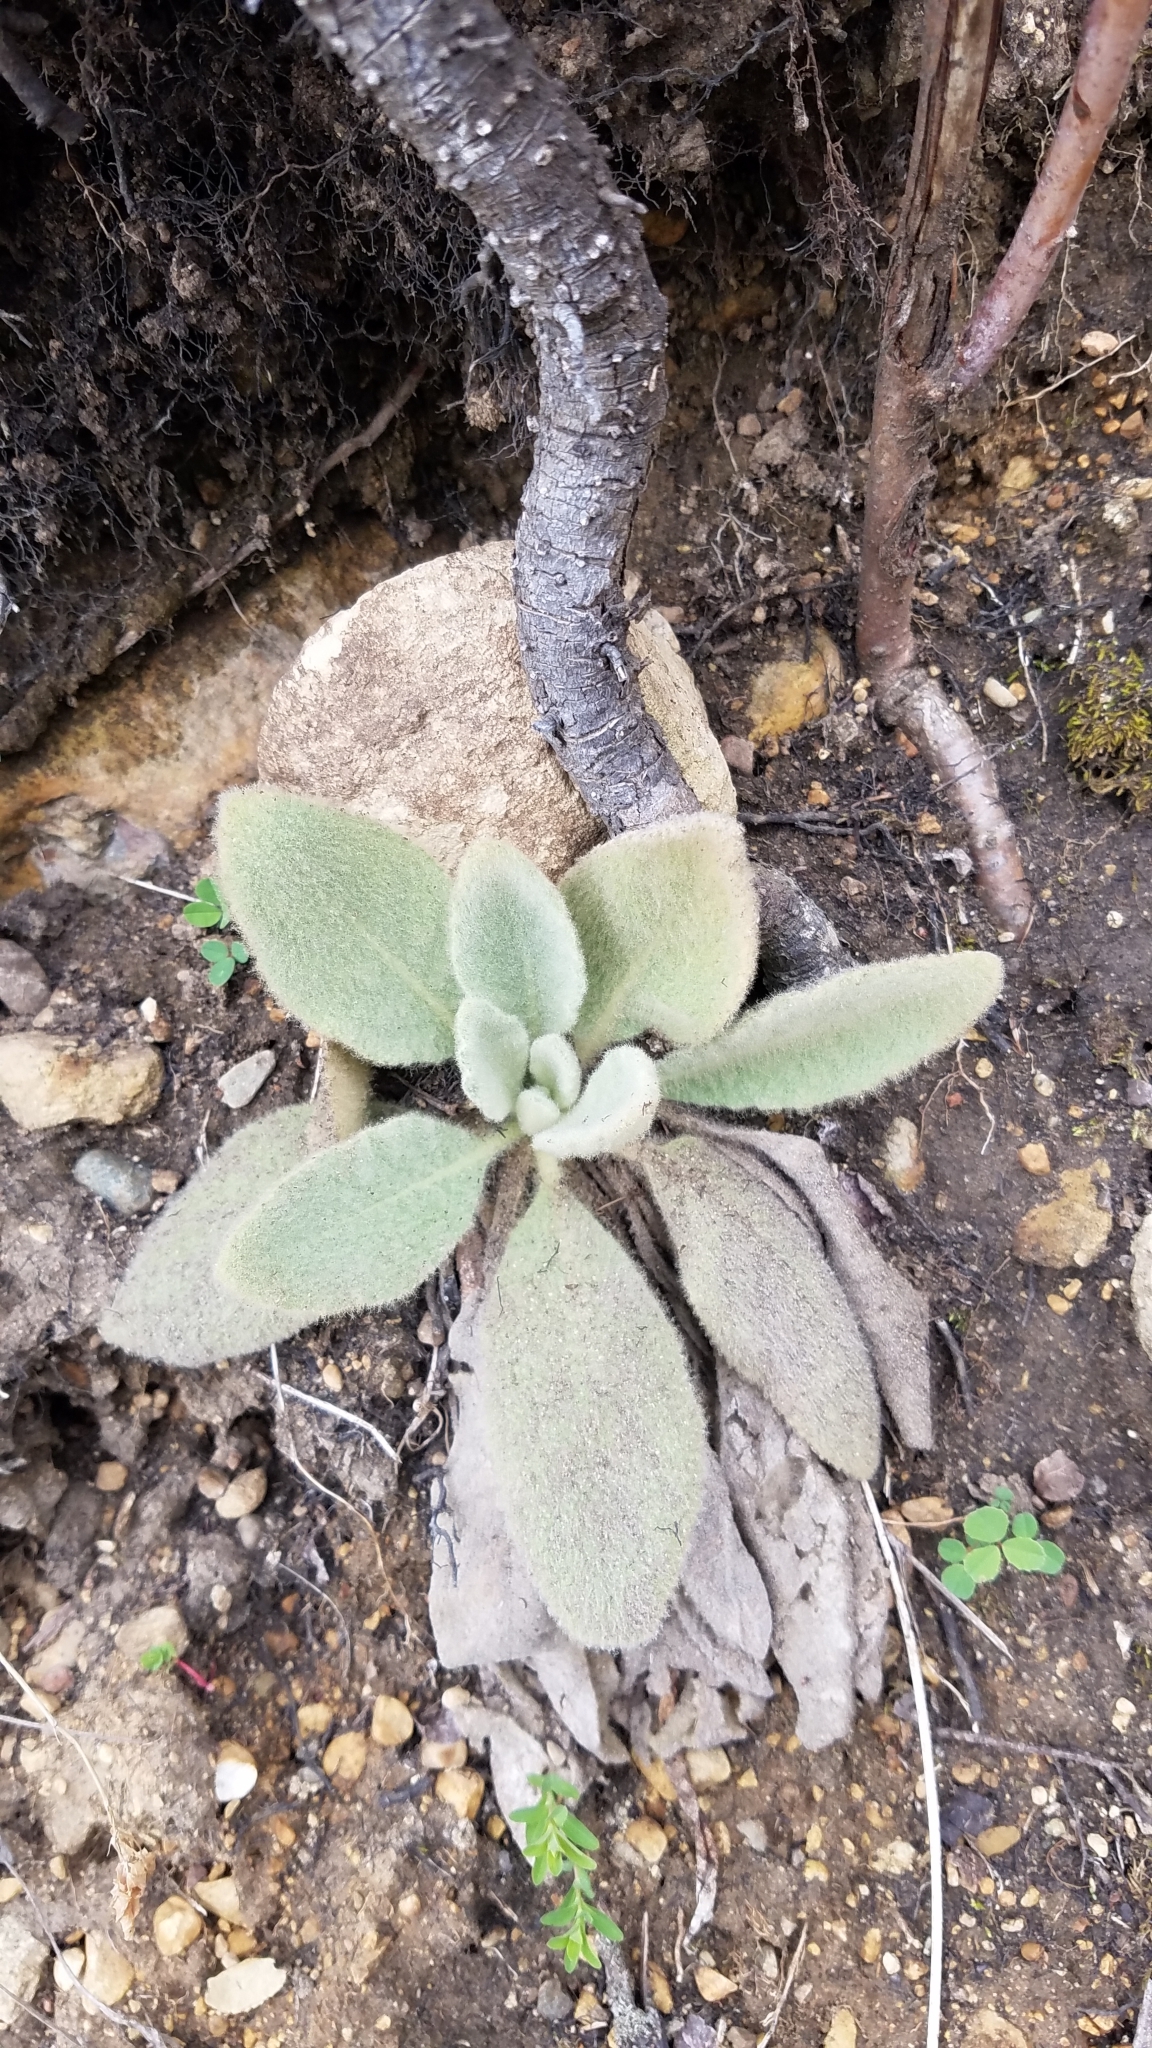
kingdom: Plantae
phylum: Tracheophyta
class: Magnoliopsida
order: Lamiales
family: Scrophulariaceae
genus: Verbascum
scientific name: Verbascum thapsus
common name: Common mullein
